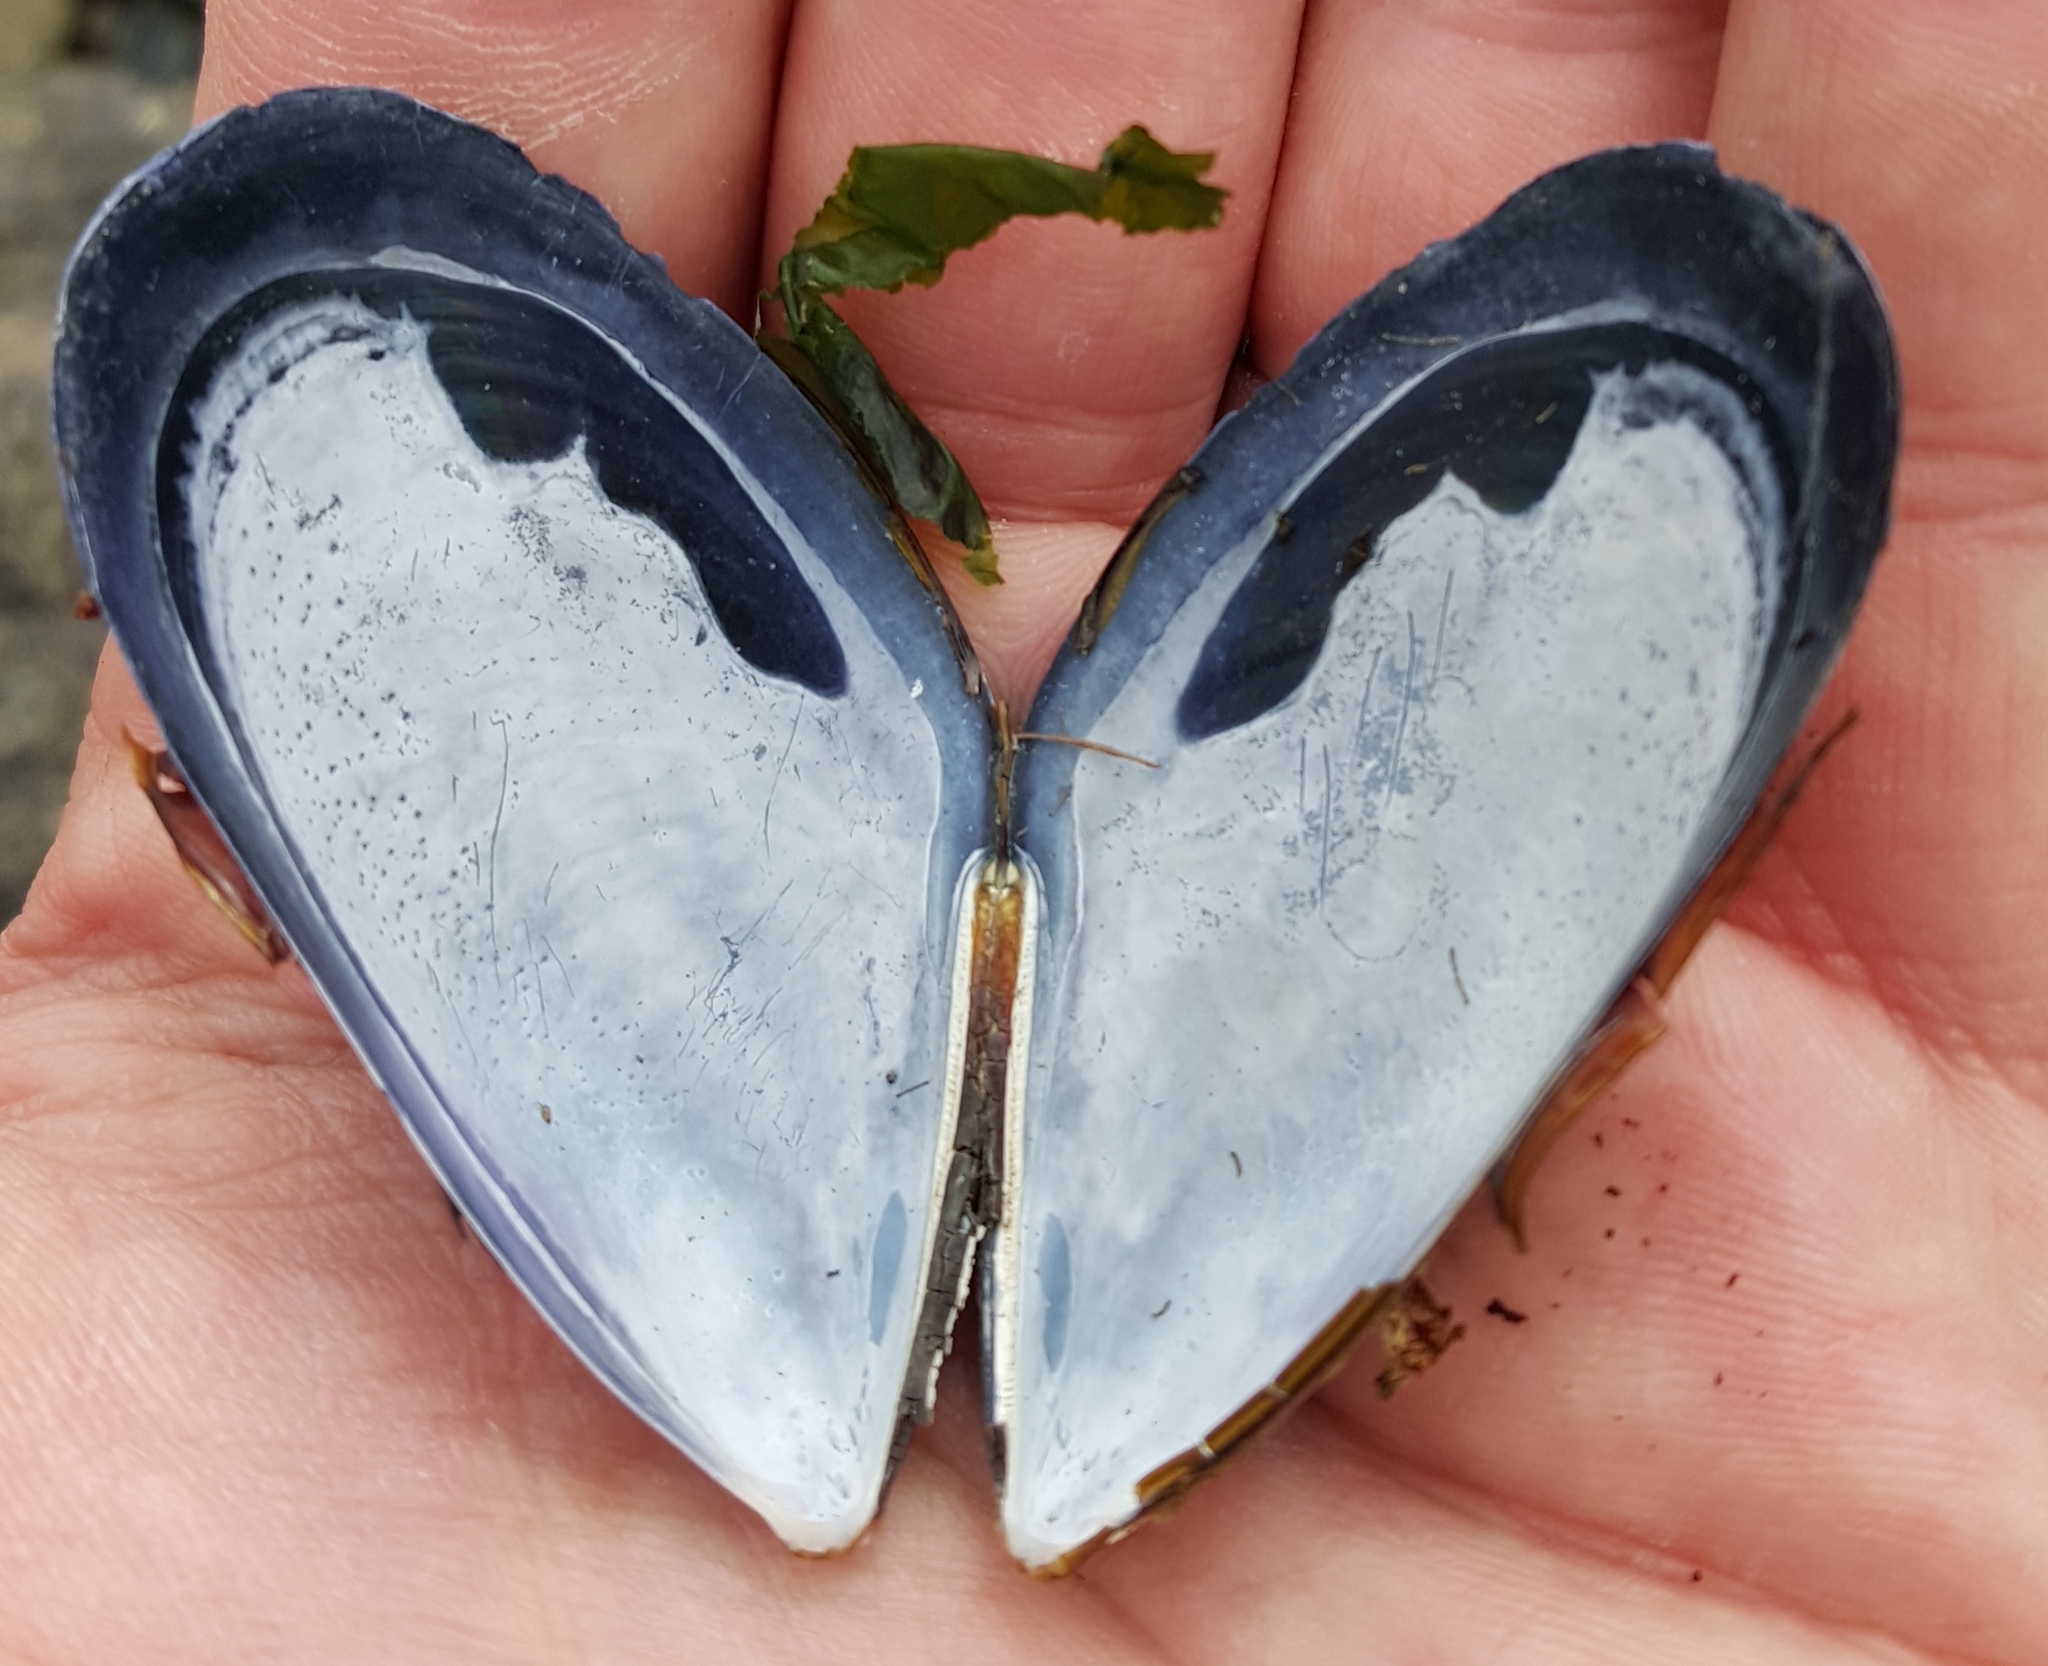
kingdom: Animalia
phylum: Mollusca
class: Bivalvia
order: Mytilida
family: Mytilidae
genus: Mytilus
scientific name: Mytilus
